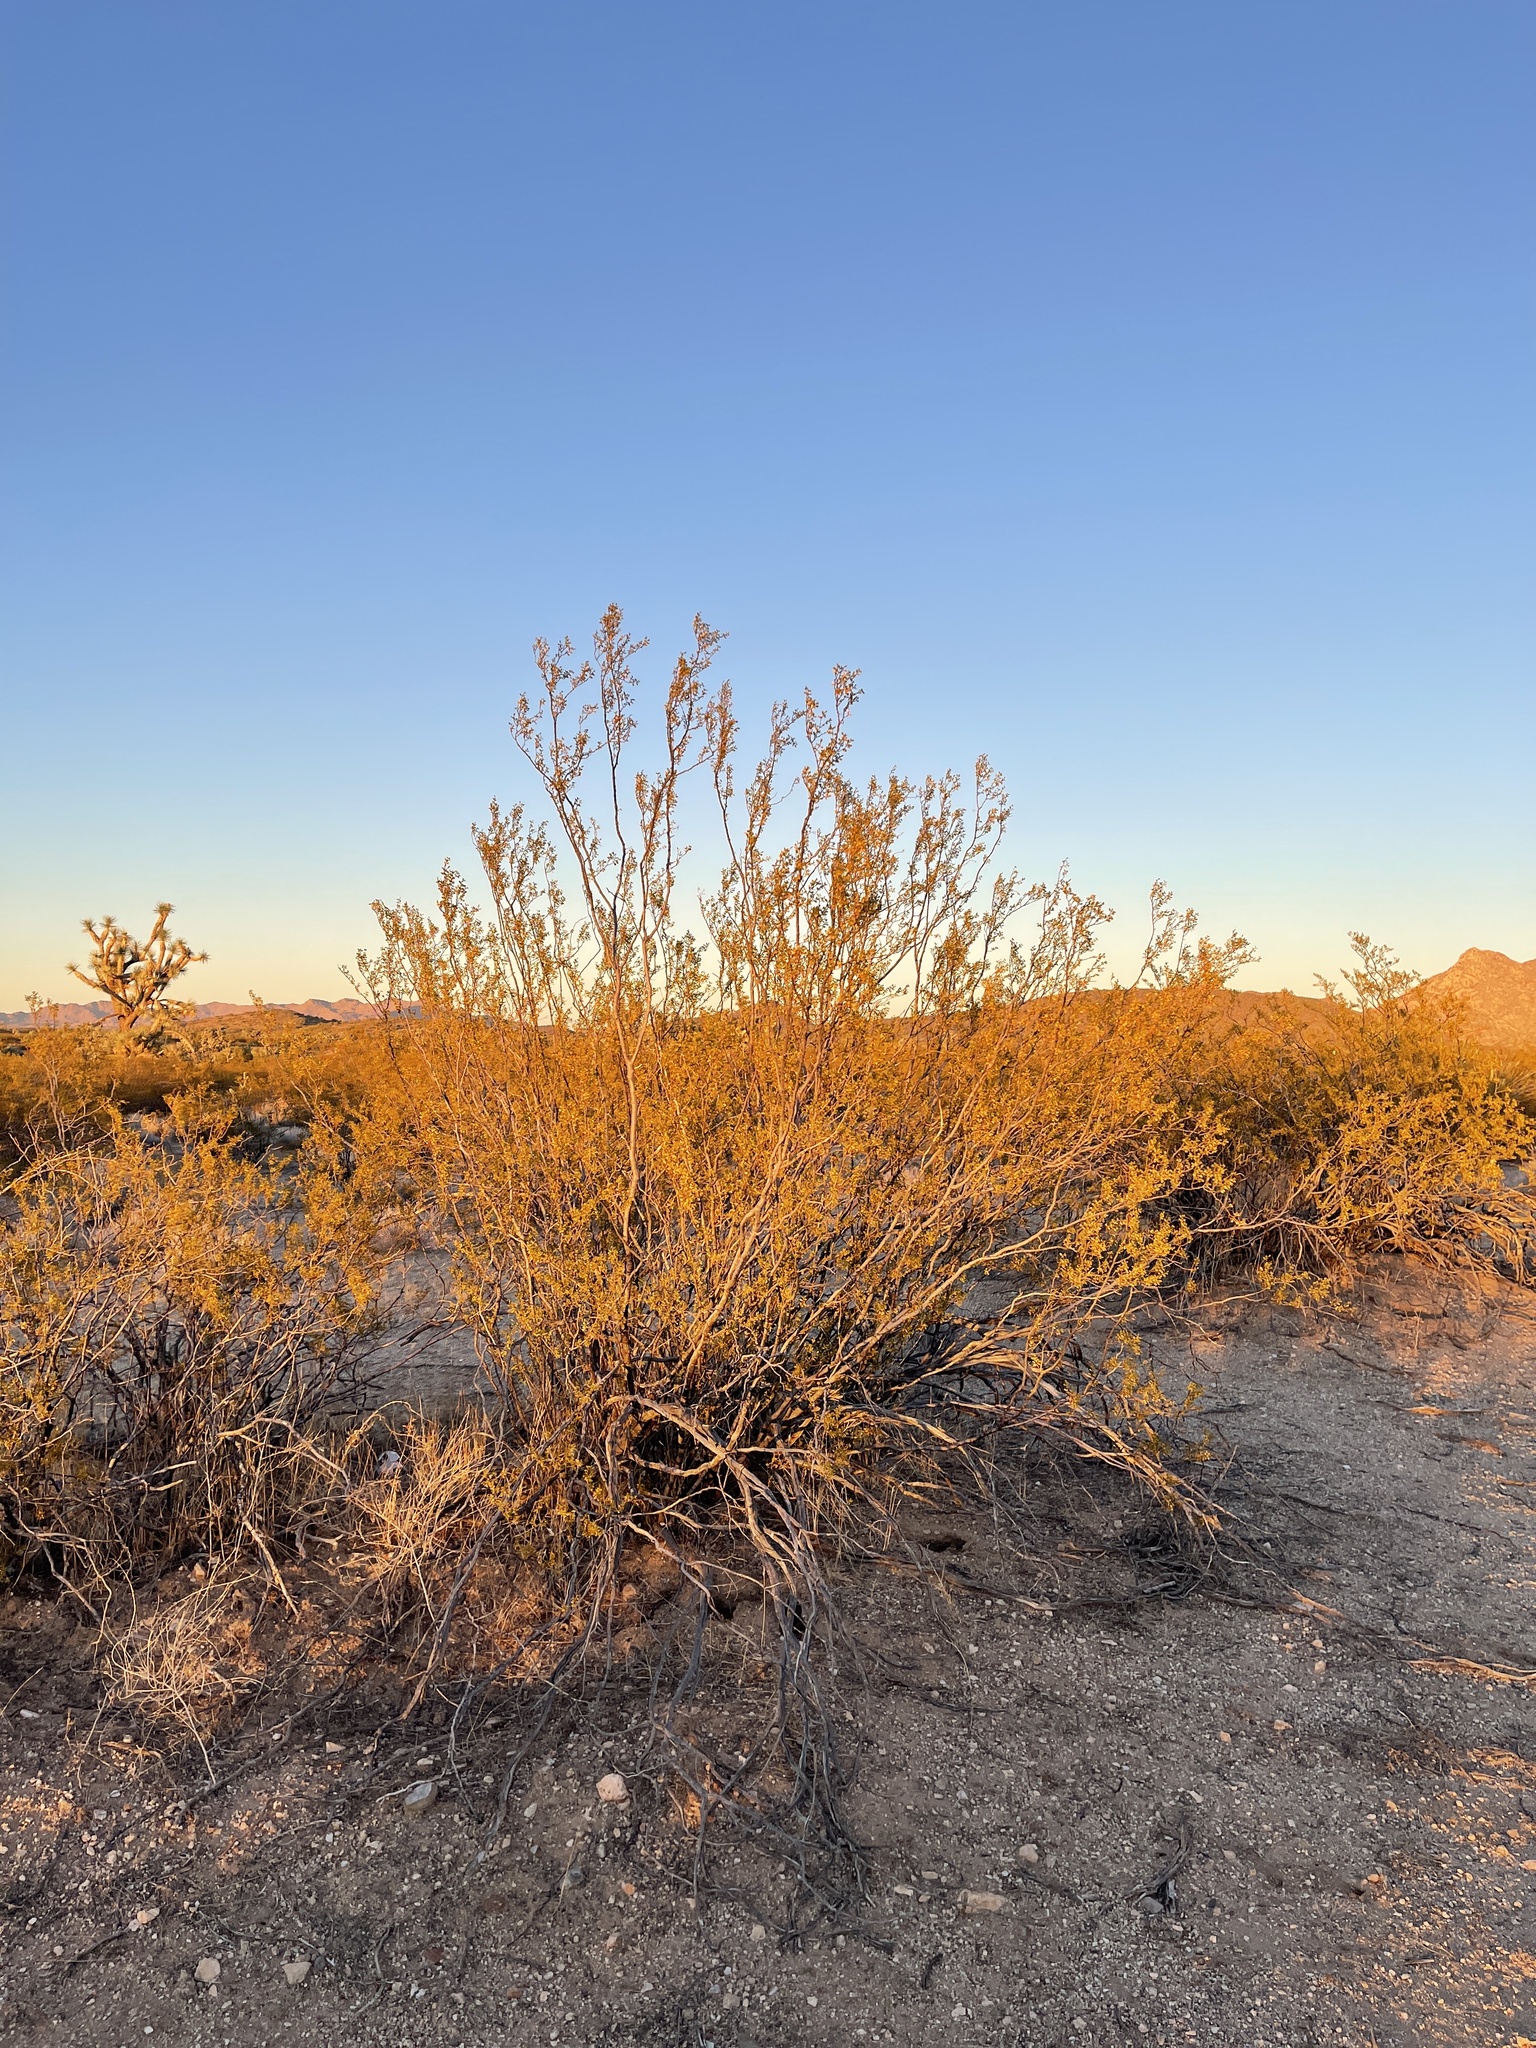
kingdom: Plantae
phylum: Tracheophyta
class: Magnoliopsida
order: Zygophyllales
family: Zygophyllaceae
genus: Larrea
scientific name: Larrea tridentata
